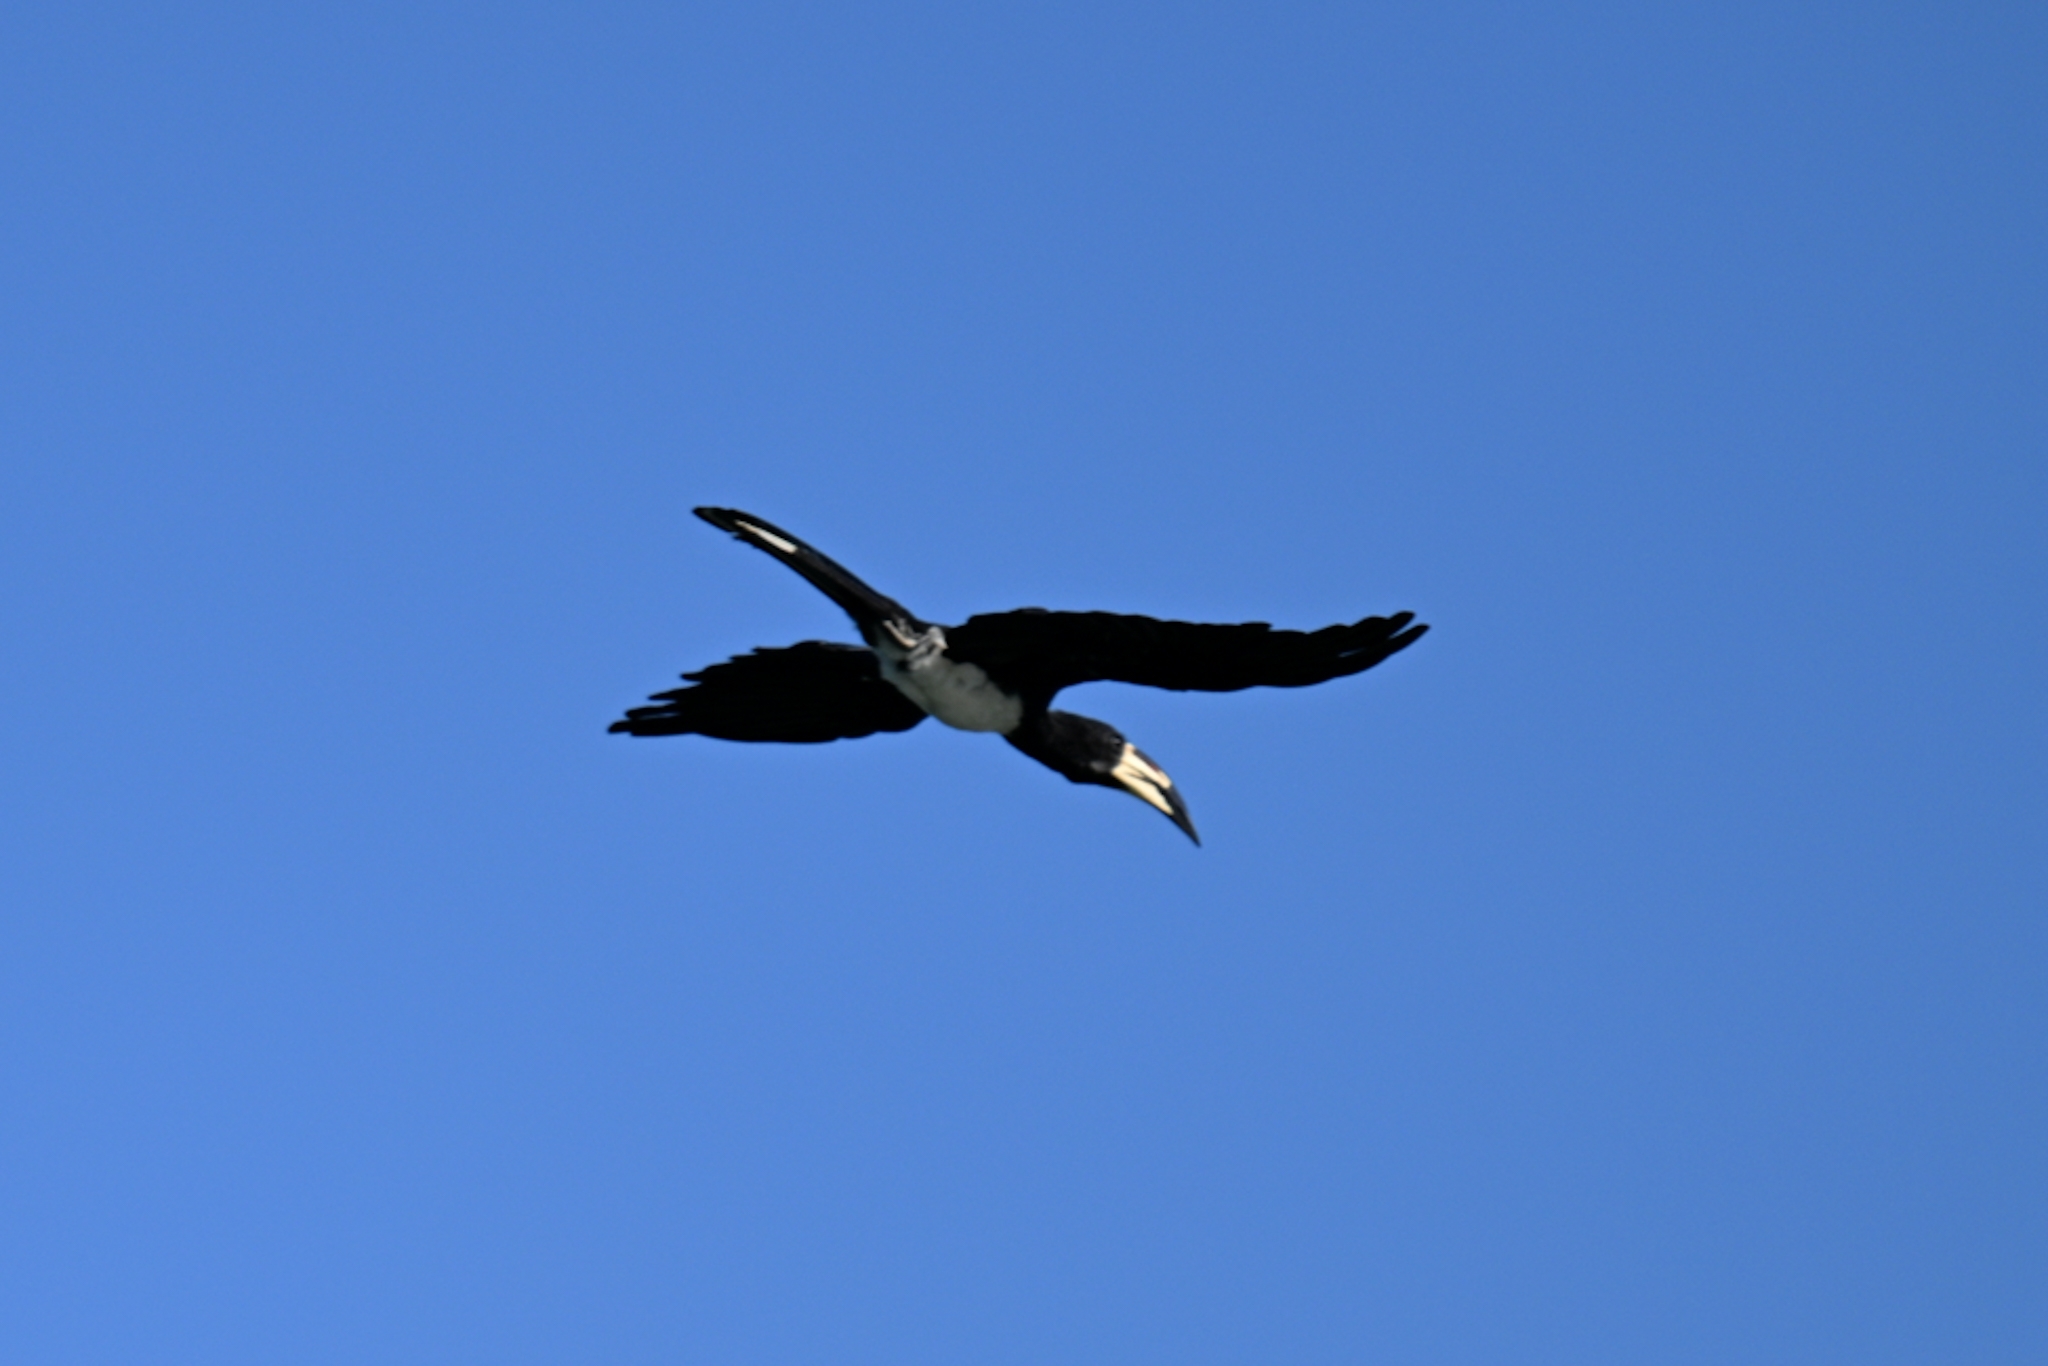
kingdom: Animalia
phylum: Chordata
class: Aves
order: Bucerotiformes
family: Bucerotidae
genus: Lophoceros
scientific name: Lophoceros fasciatus
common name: African pied hornbill
